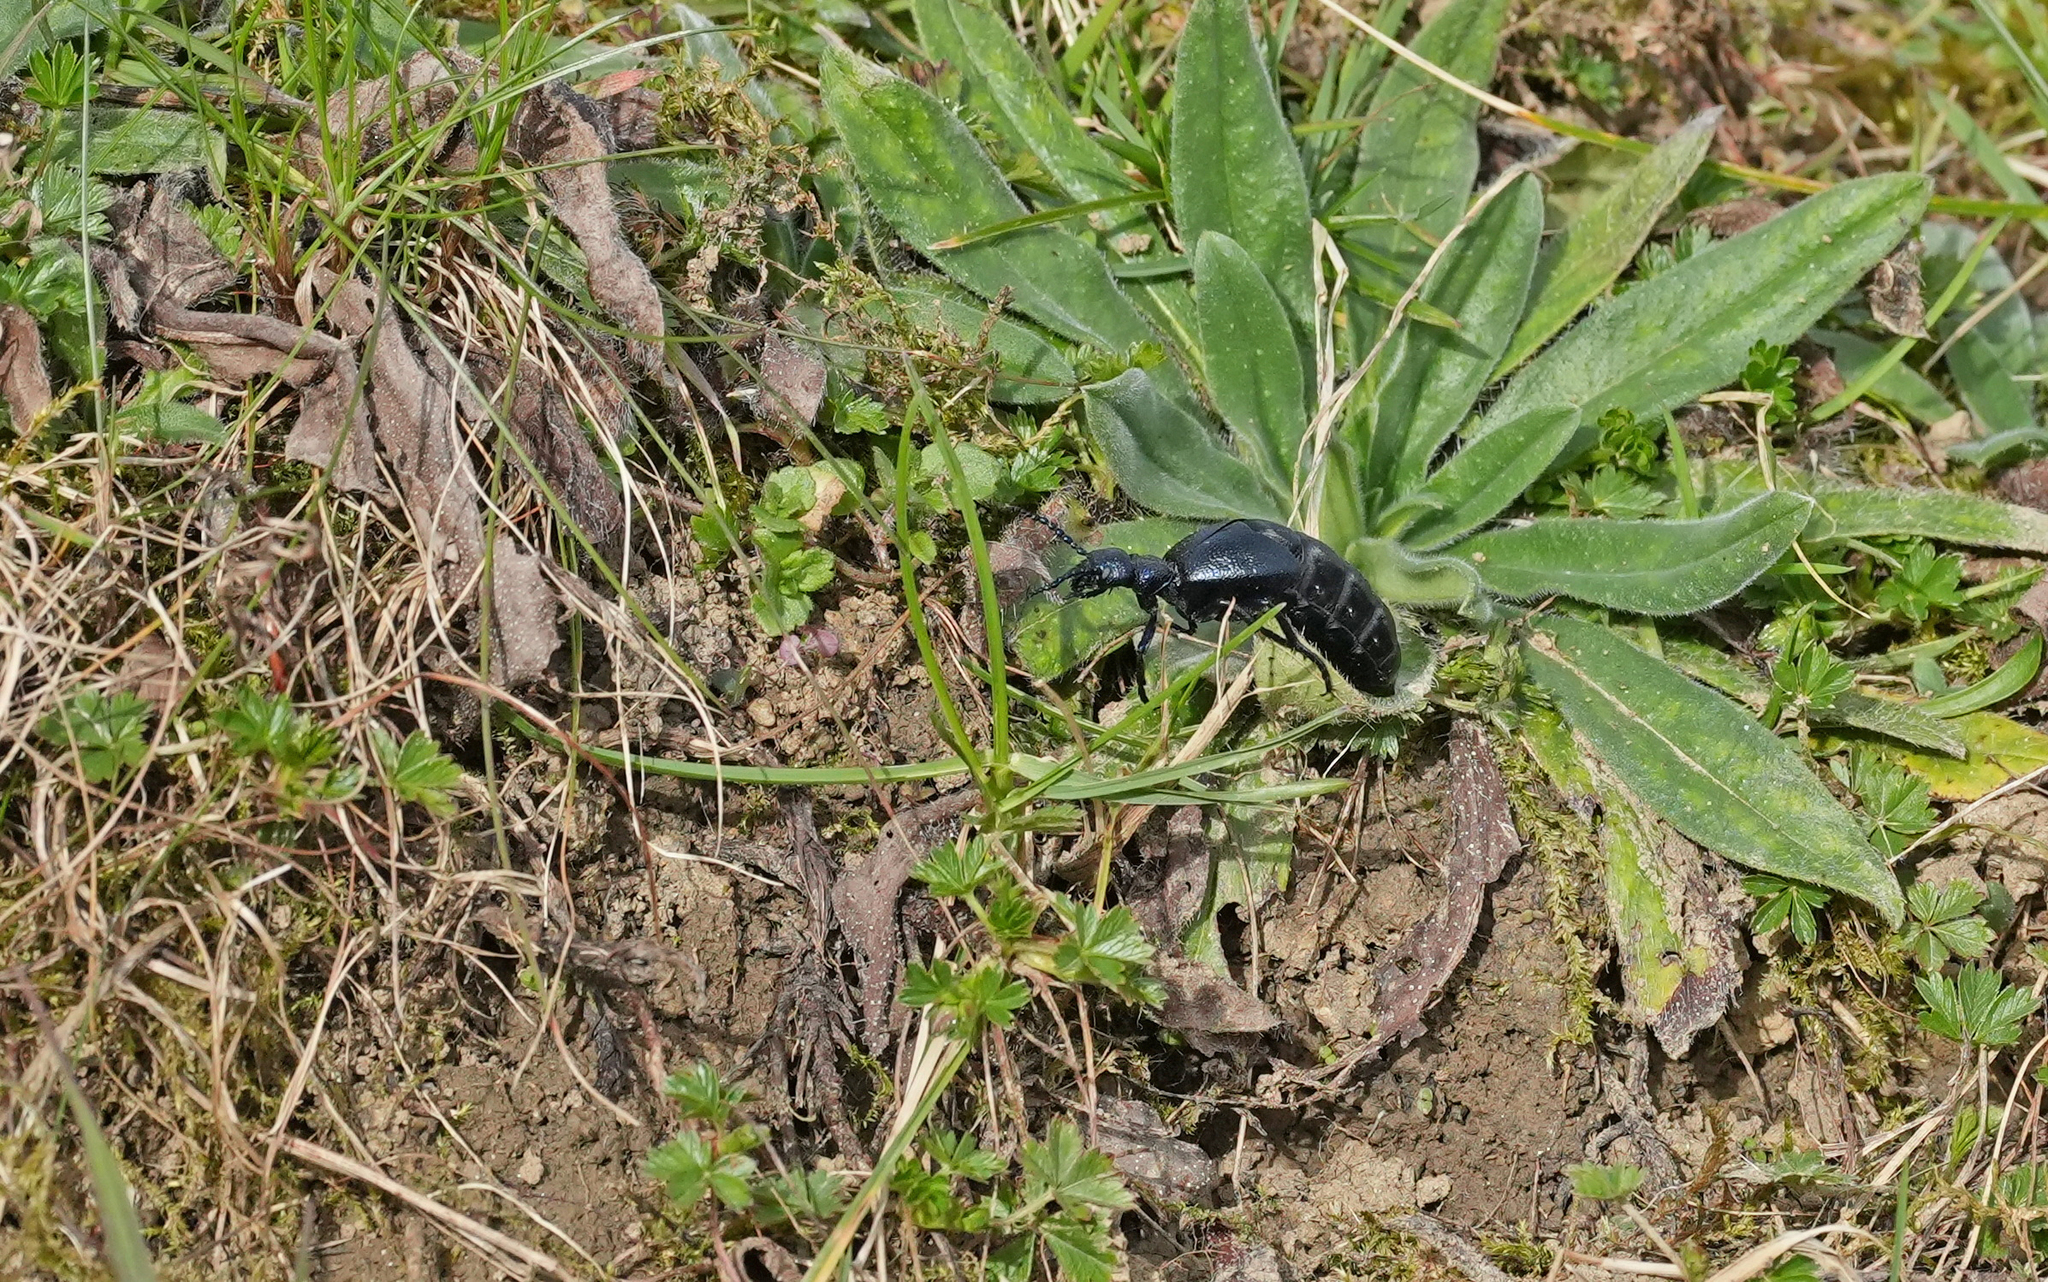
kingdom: Animalia
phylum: Arthropoda
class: Insecta
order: Coleoptera
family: Meloidae
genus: Meloe
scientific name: Meloe proscarabaeus
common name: Black oil-beetle
